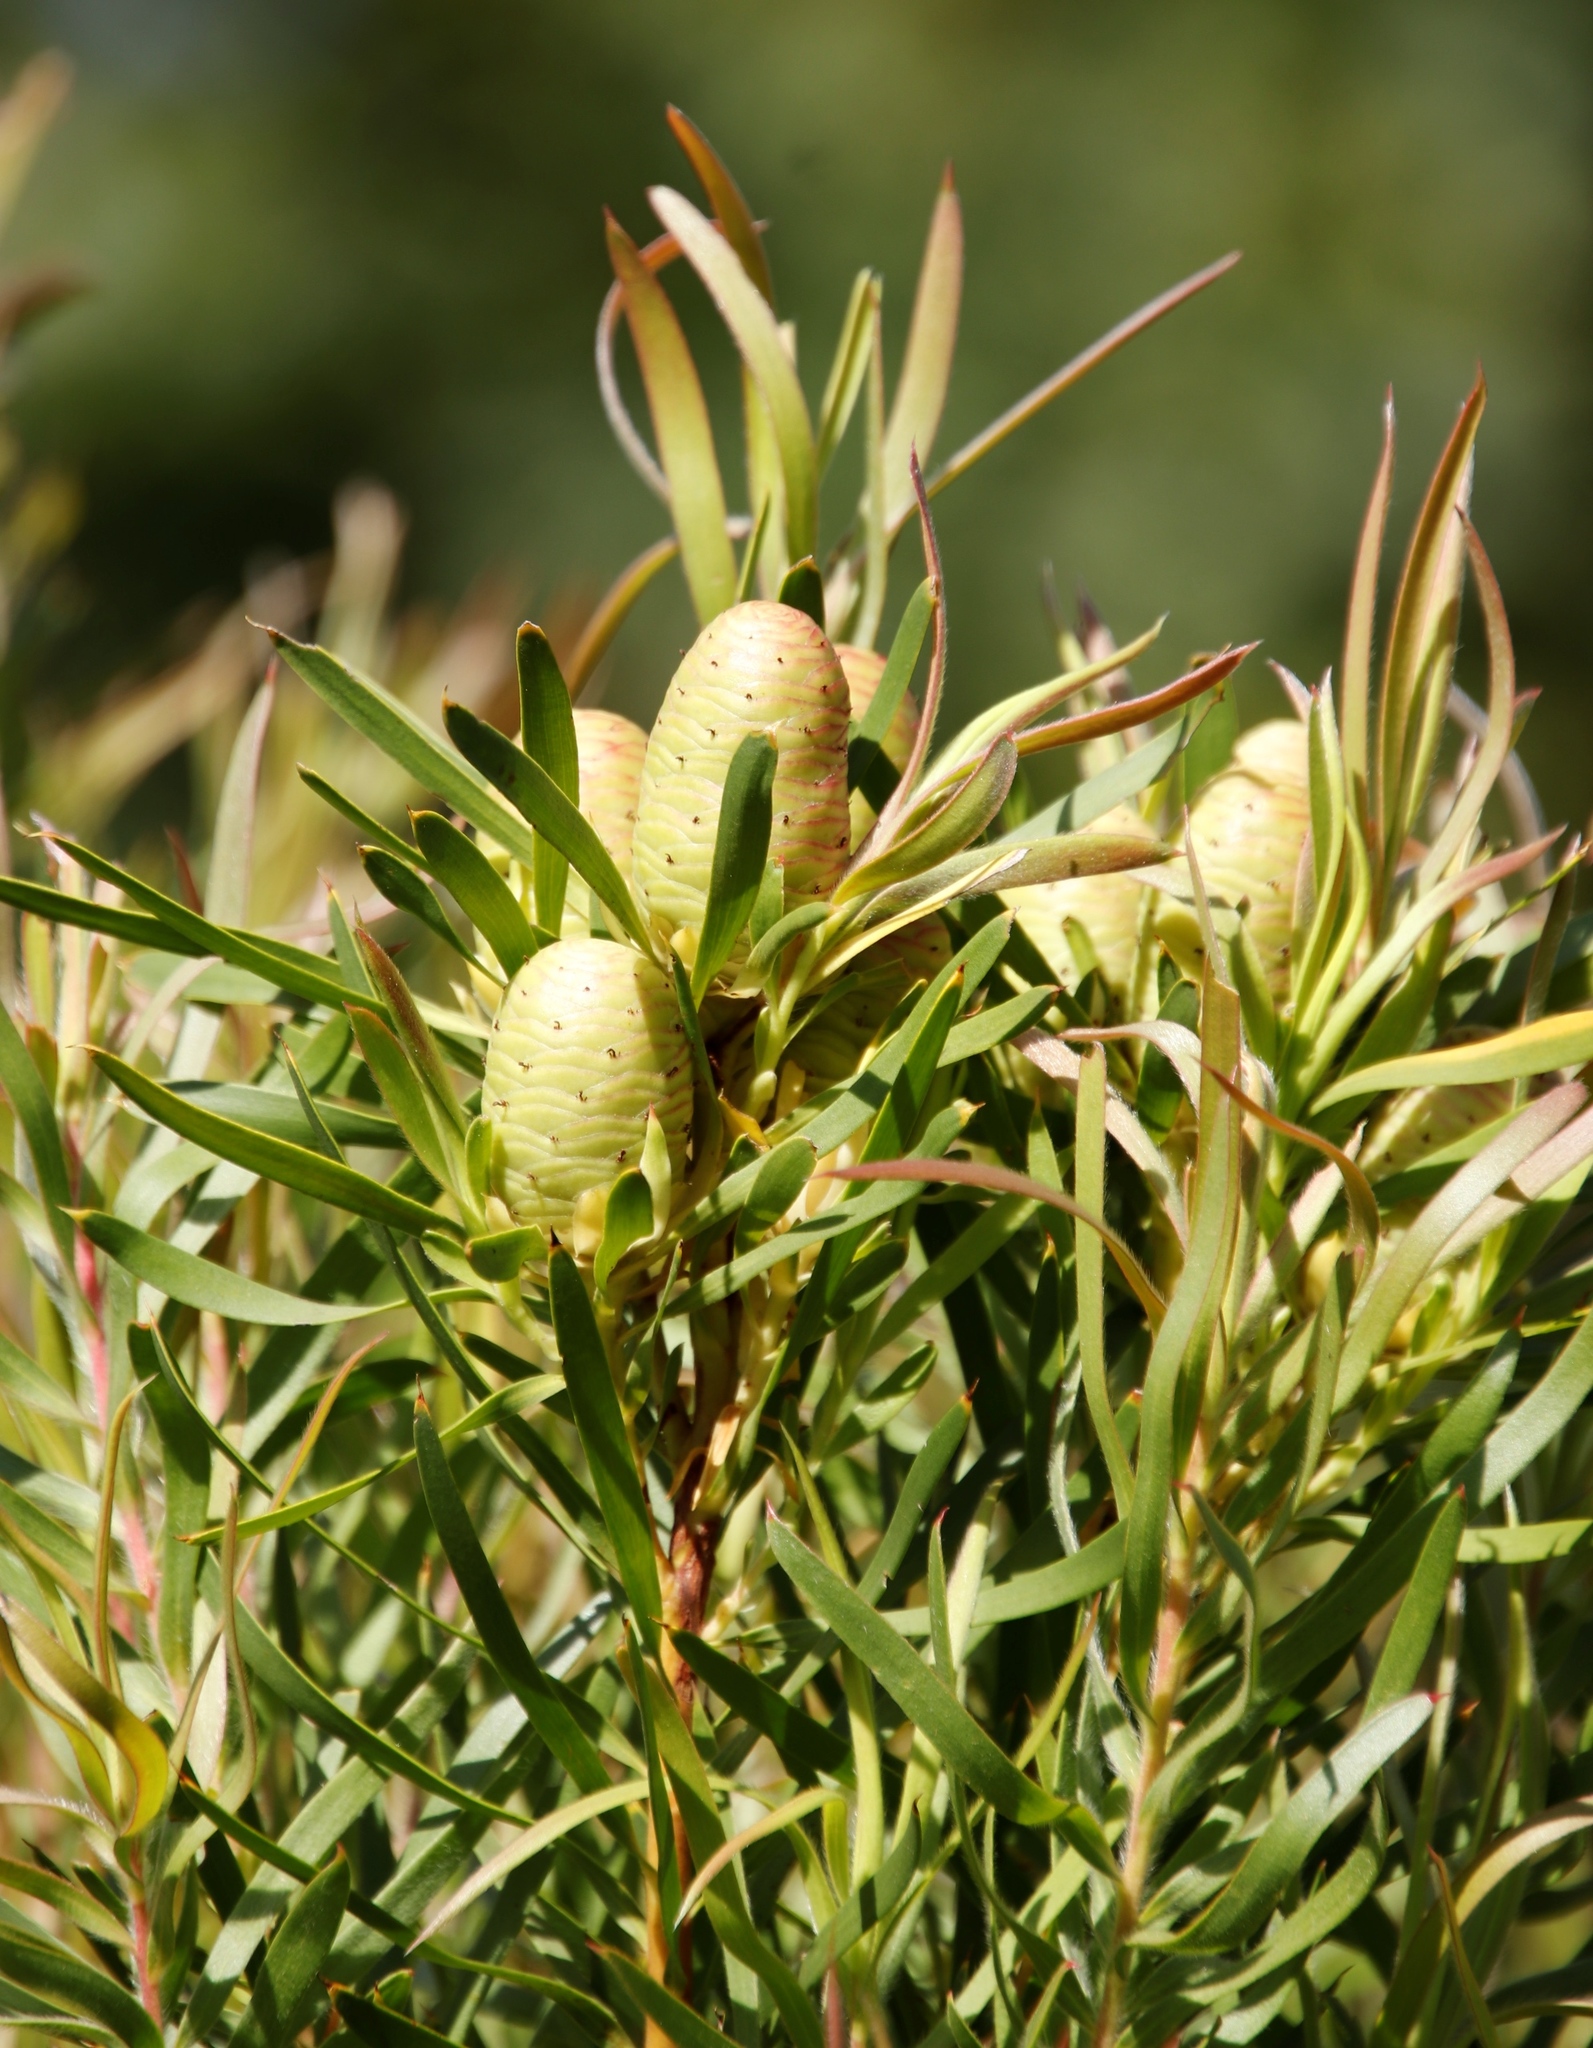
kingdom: Plantae
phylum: Tracheophyta
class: Magnoliopsida
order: Proteales
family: Proteaceae
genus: Leucadendron
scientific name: Leucadendron macowanii
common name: Acacia-leaf conebush
